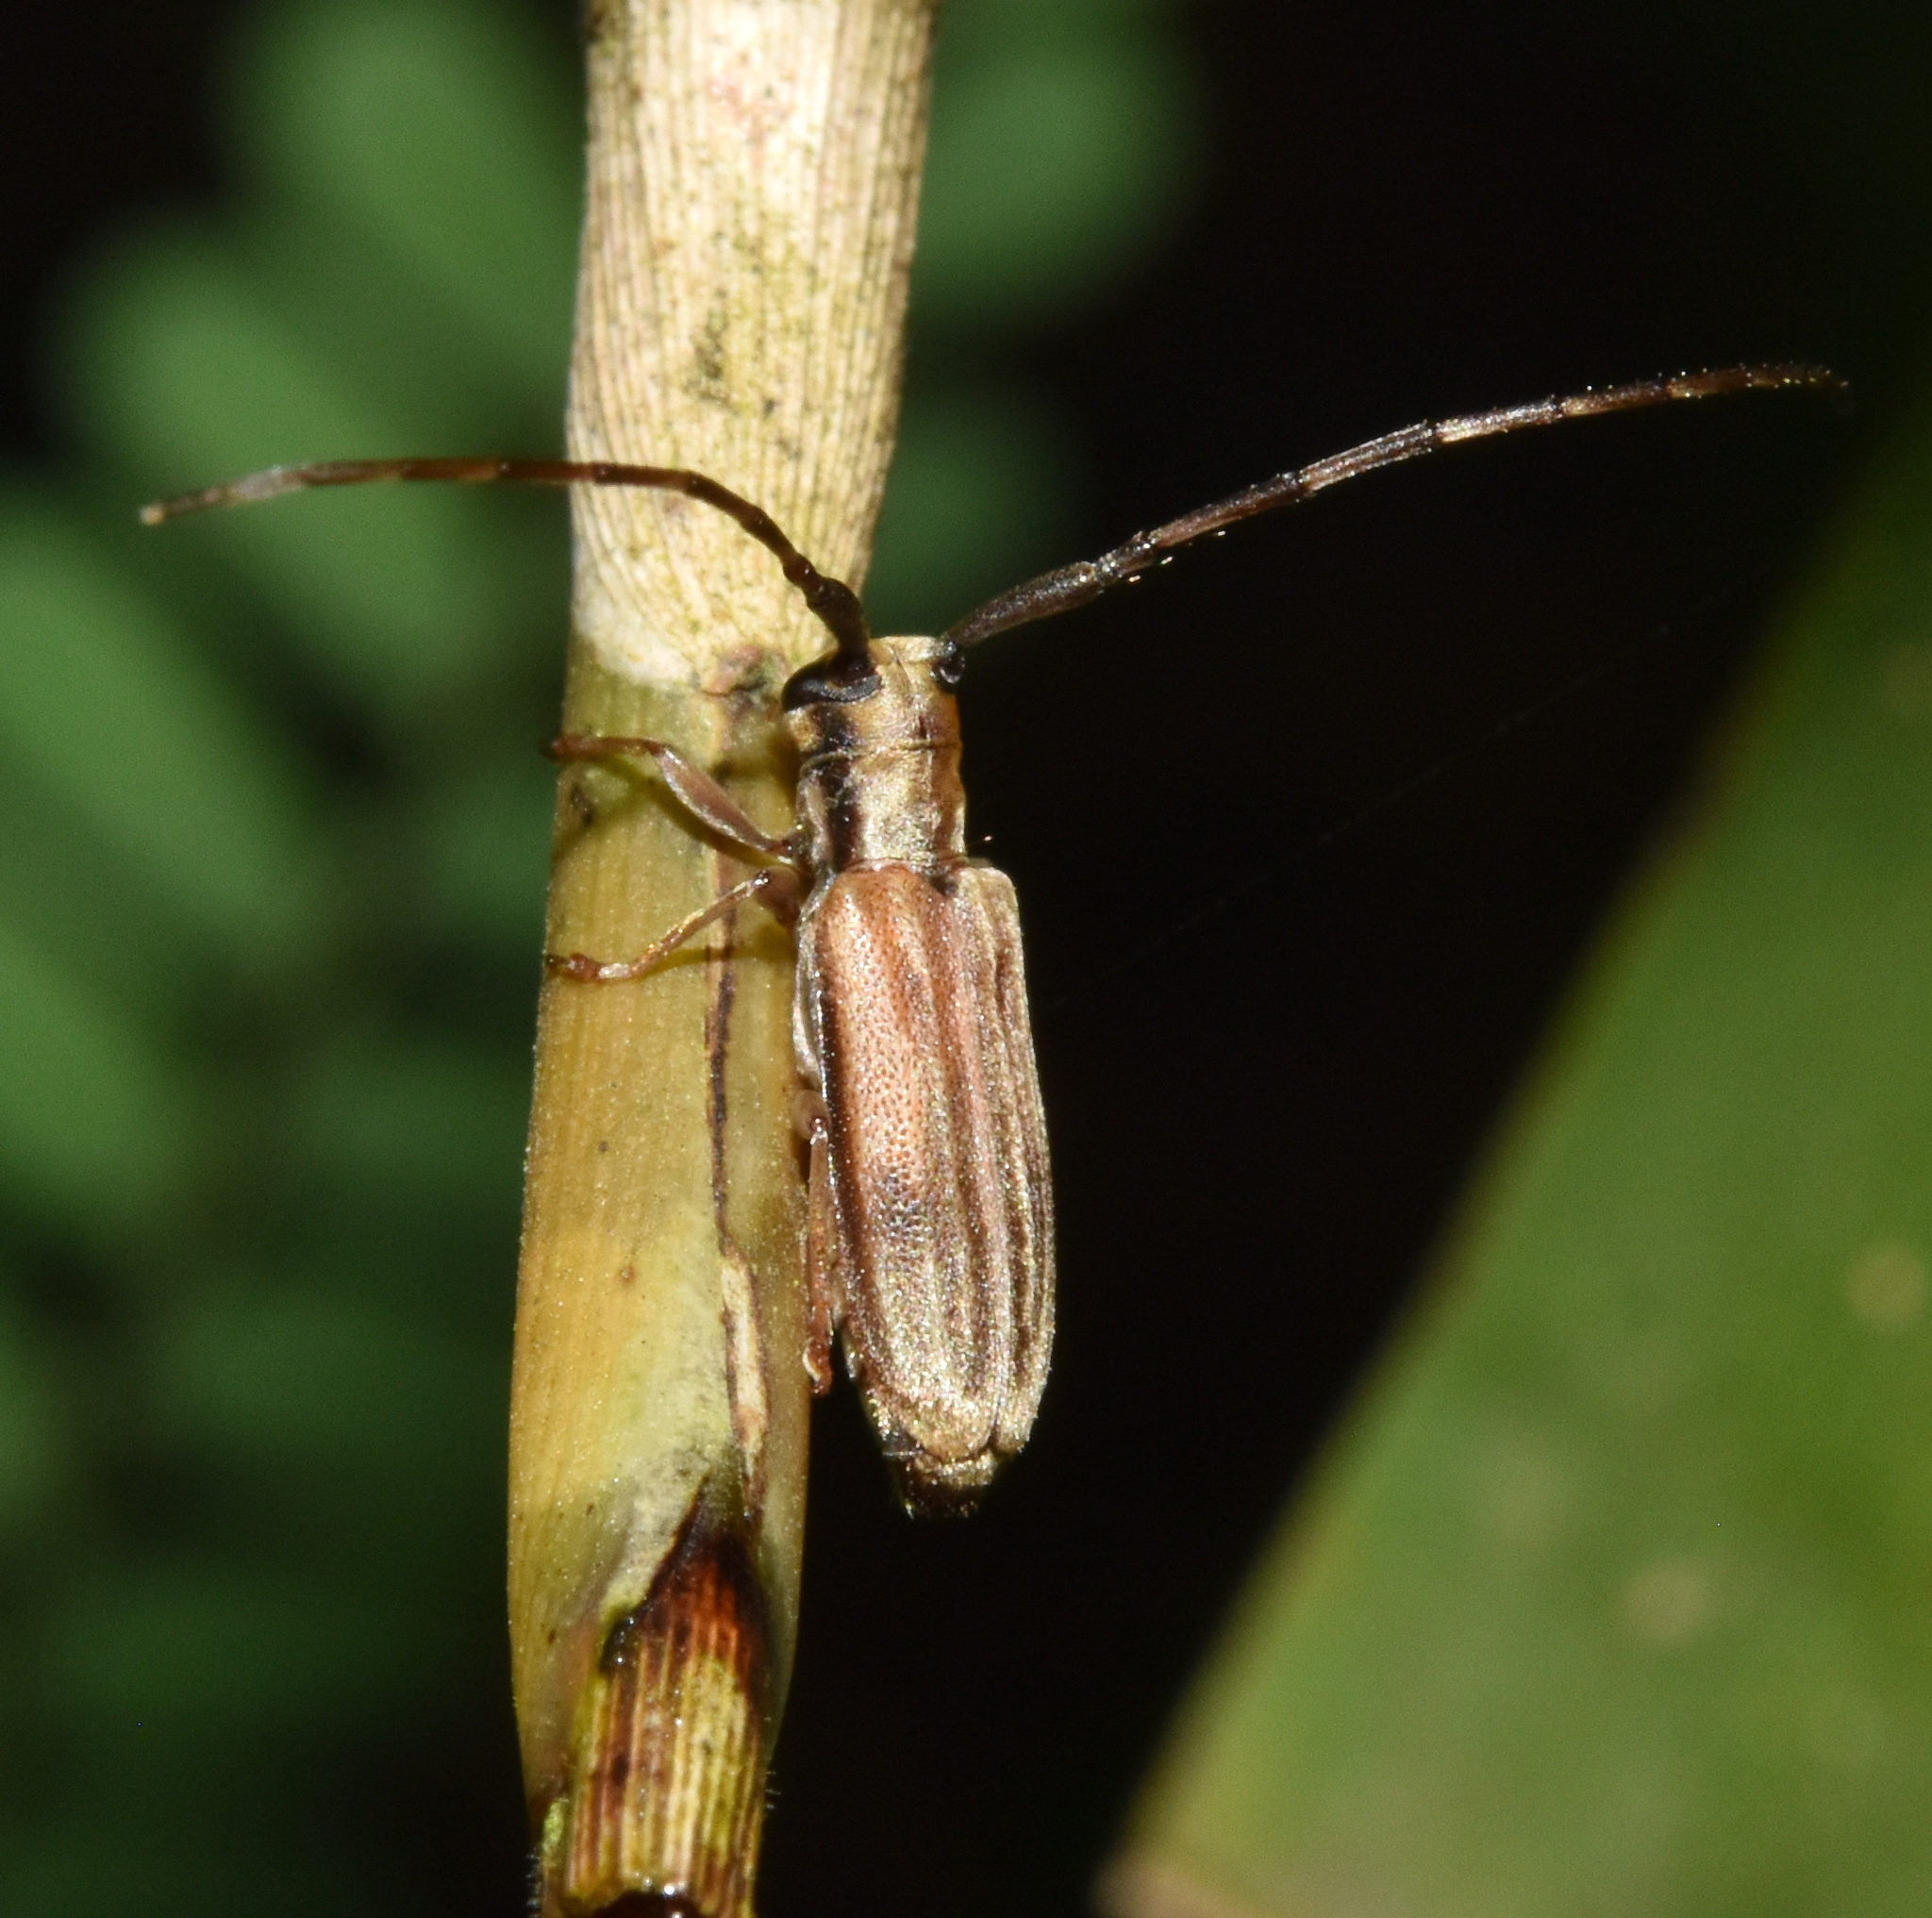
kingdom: Animalia
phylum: Arthropoda
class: Insecta
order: Coleoptera
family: Cerambycidae
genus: Eunidia
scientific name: Eunidia vestigialis
